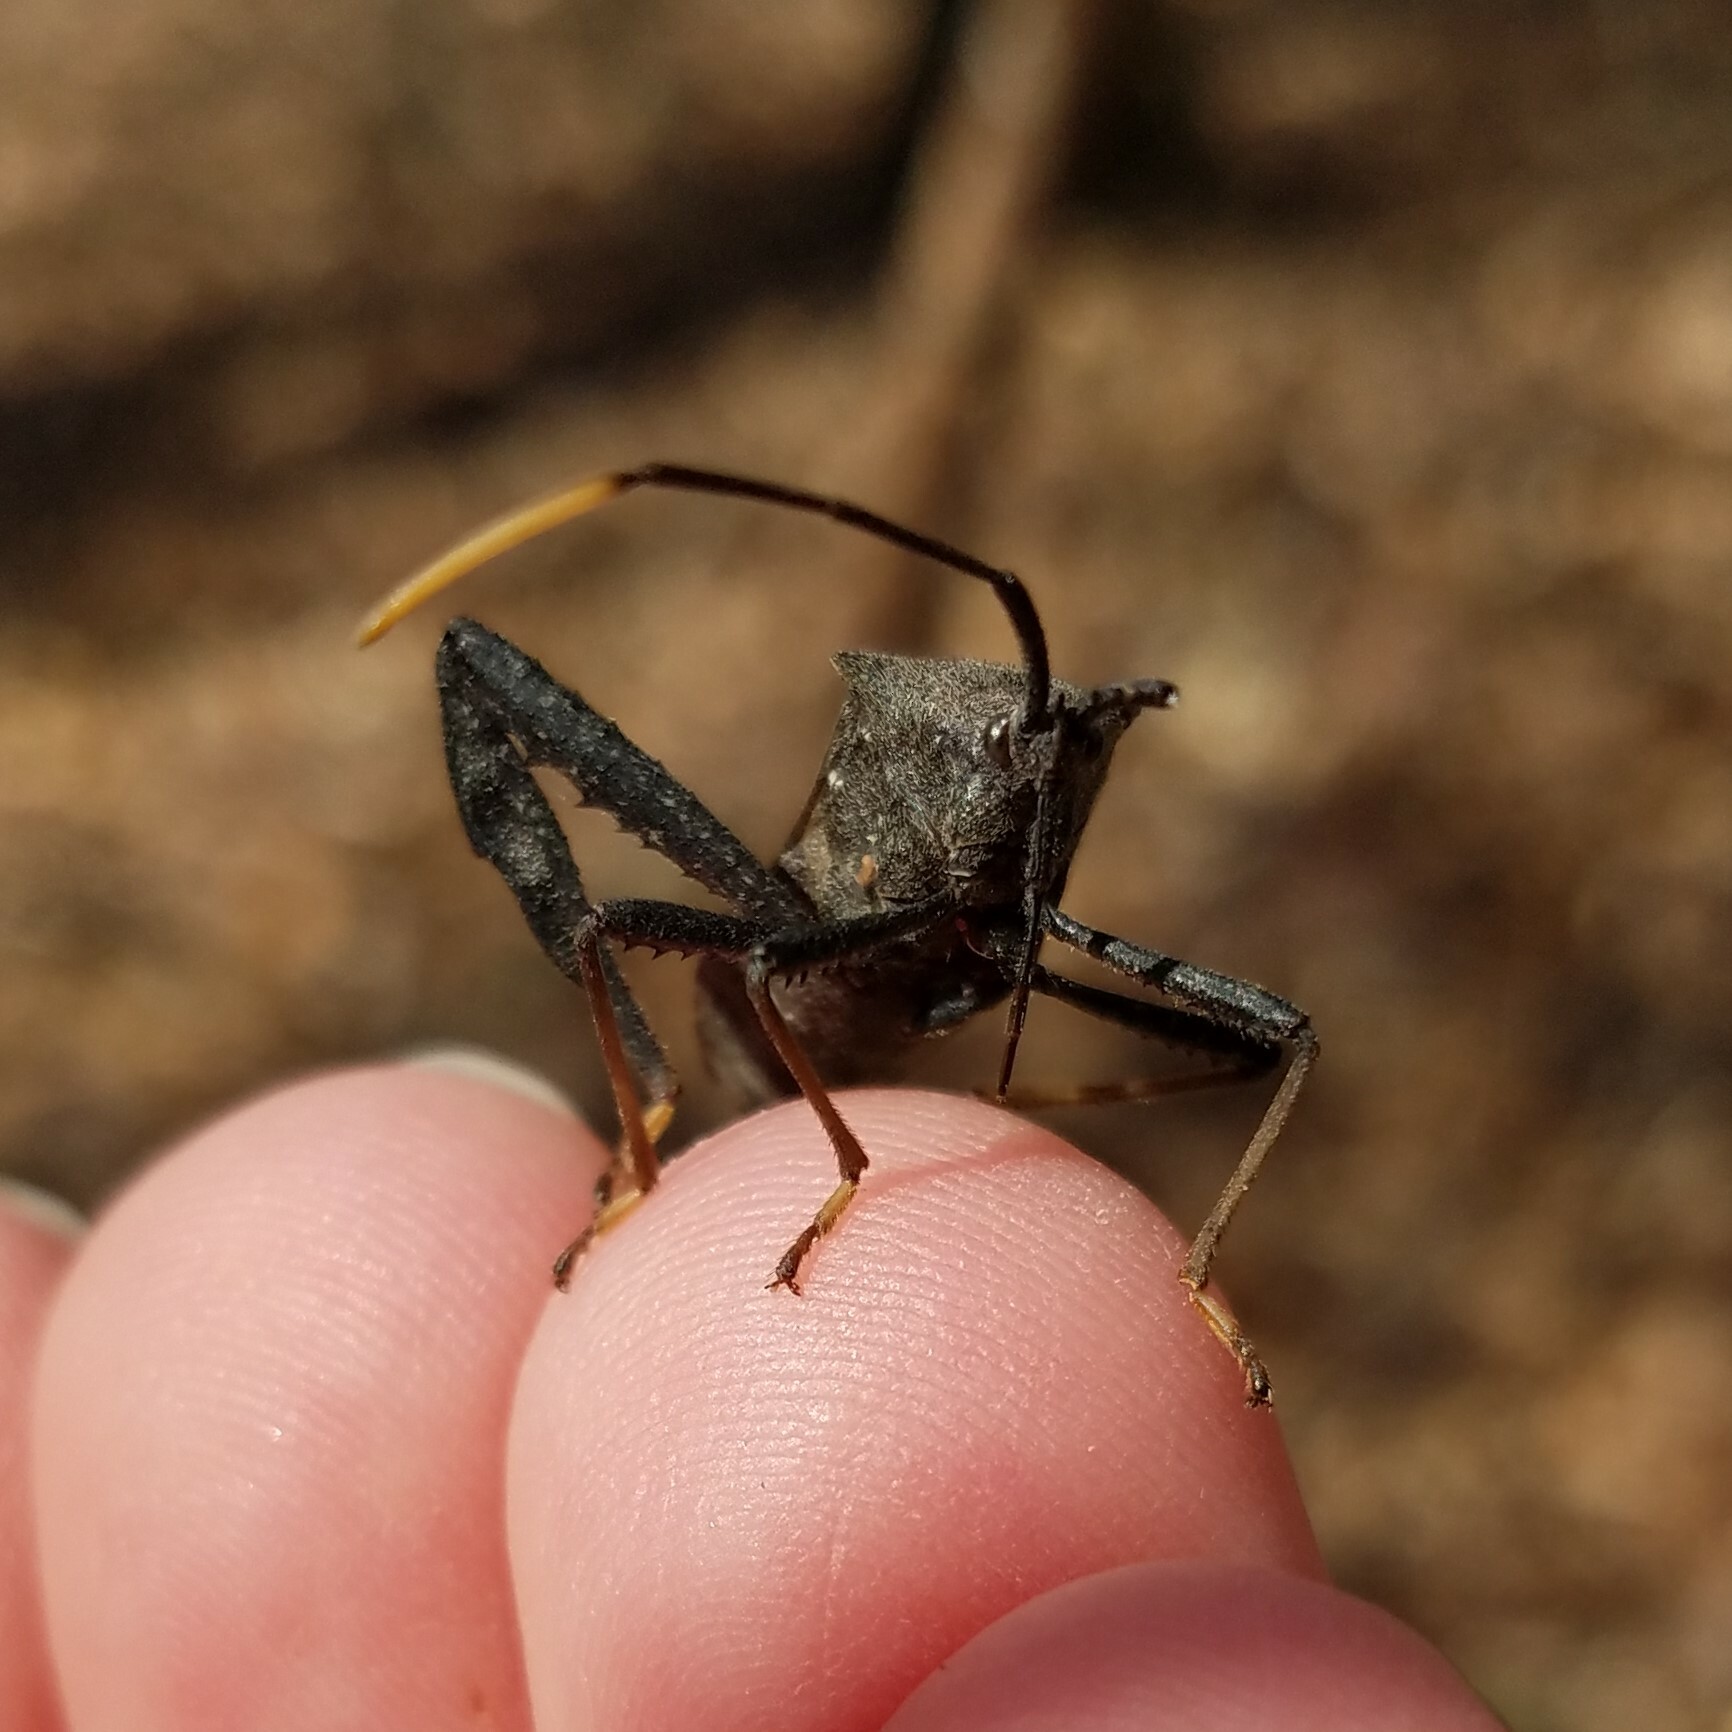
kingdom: Animalia
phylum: Arthropoda
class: Insecta
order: Hemiptera
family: Coreidae
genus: Acanthocephala
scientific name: Acanthocephala terminalis
